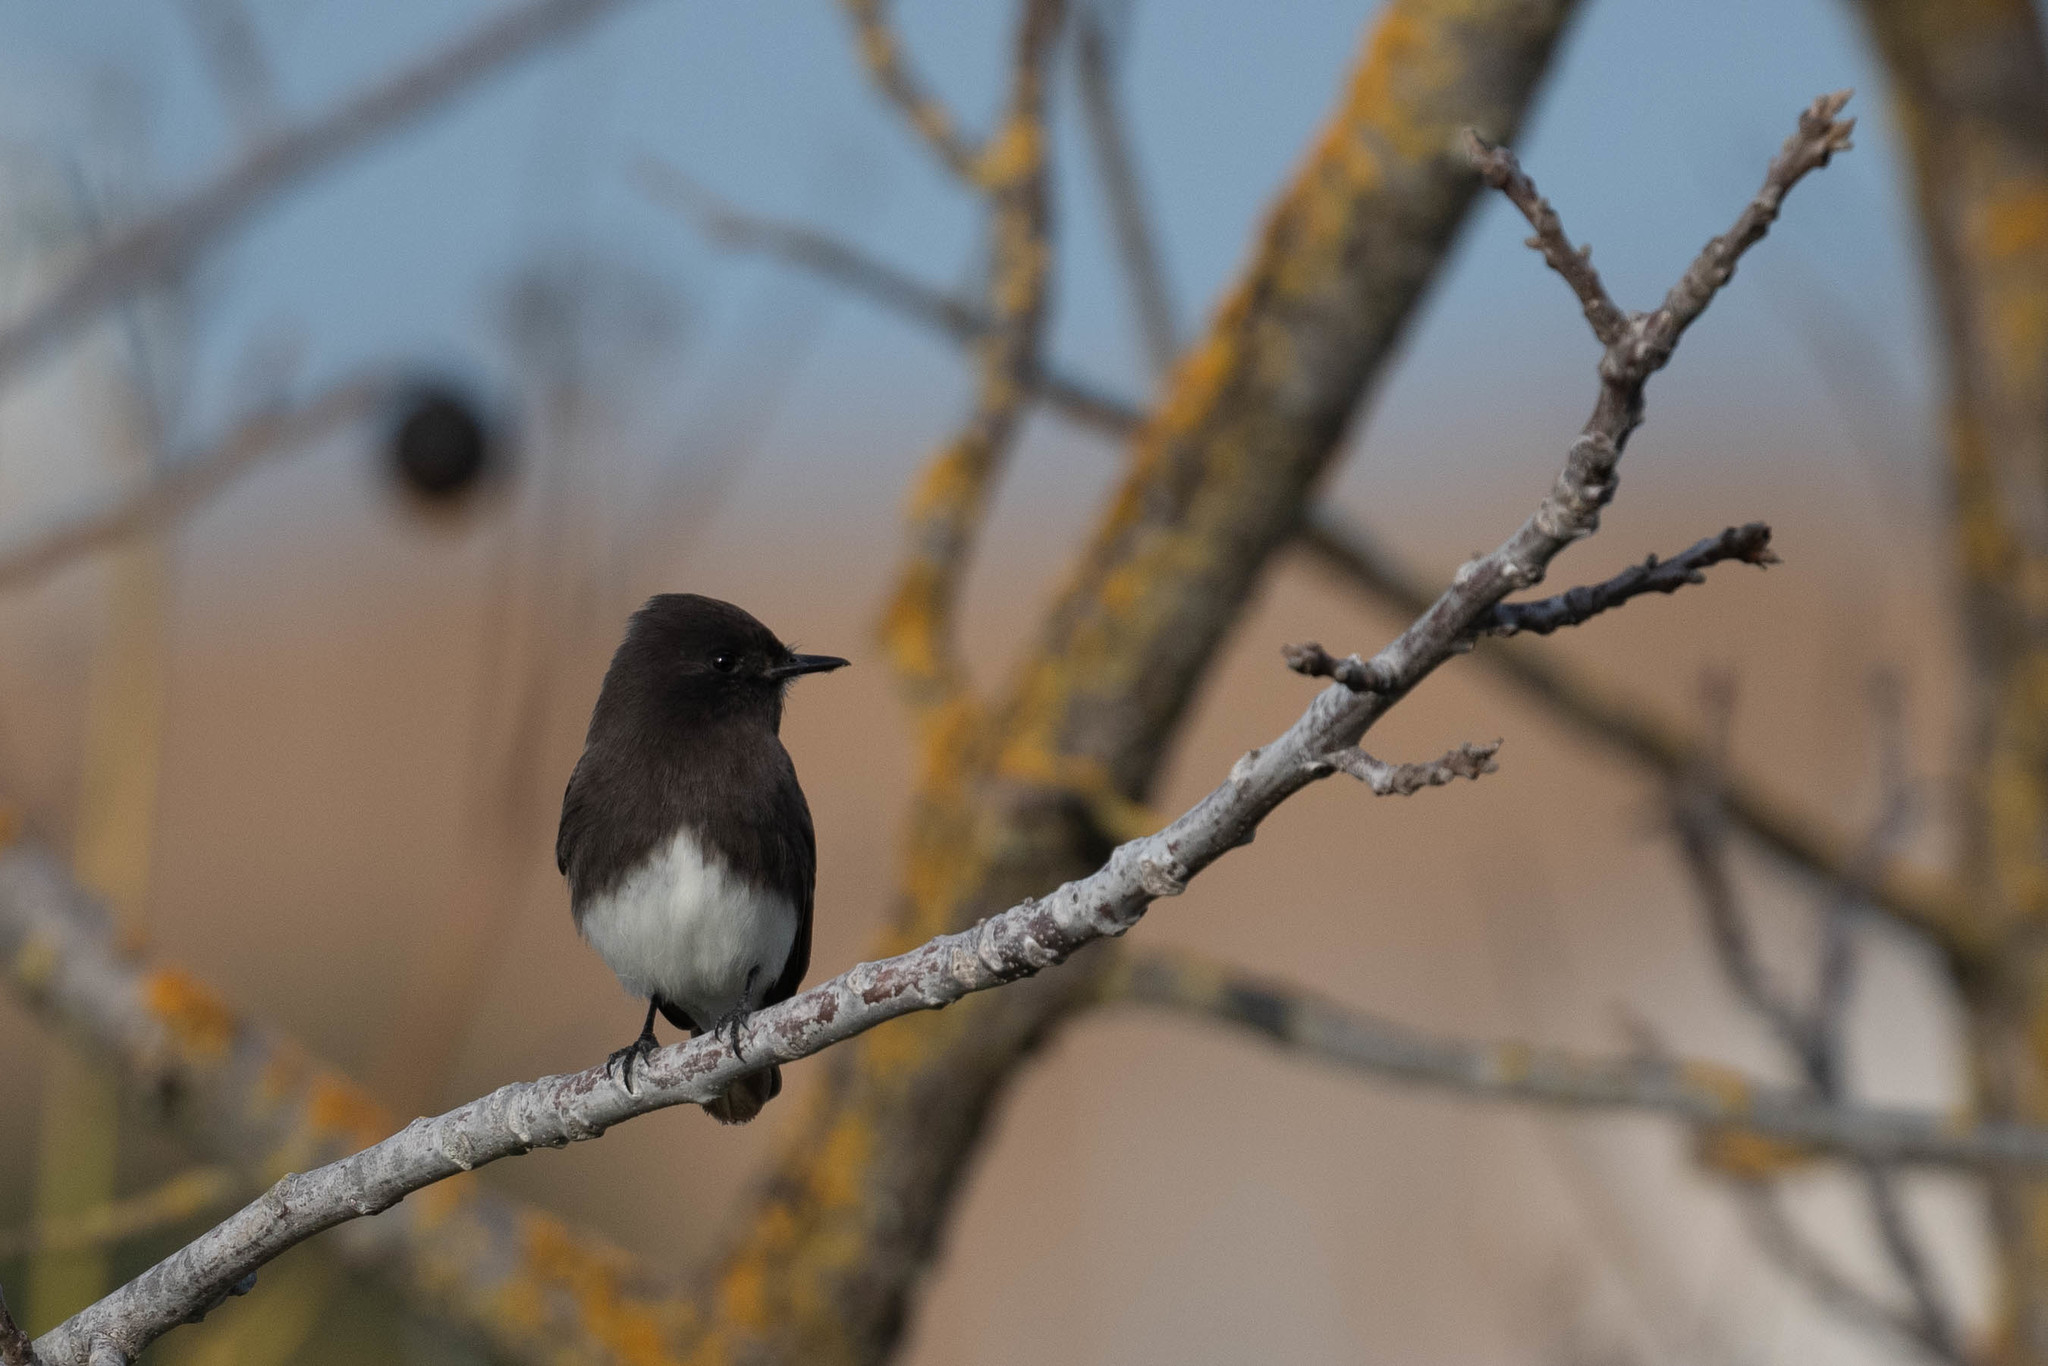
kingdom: Animalia
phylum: Chordata
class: Aves
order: Passeriformes
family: Tyrannidae
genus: Sayornis
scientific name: Sayornis nigricans
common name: Black phoebe
